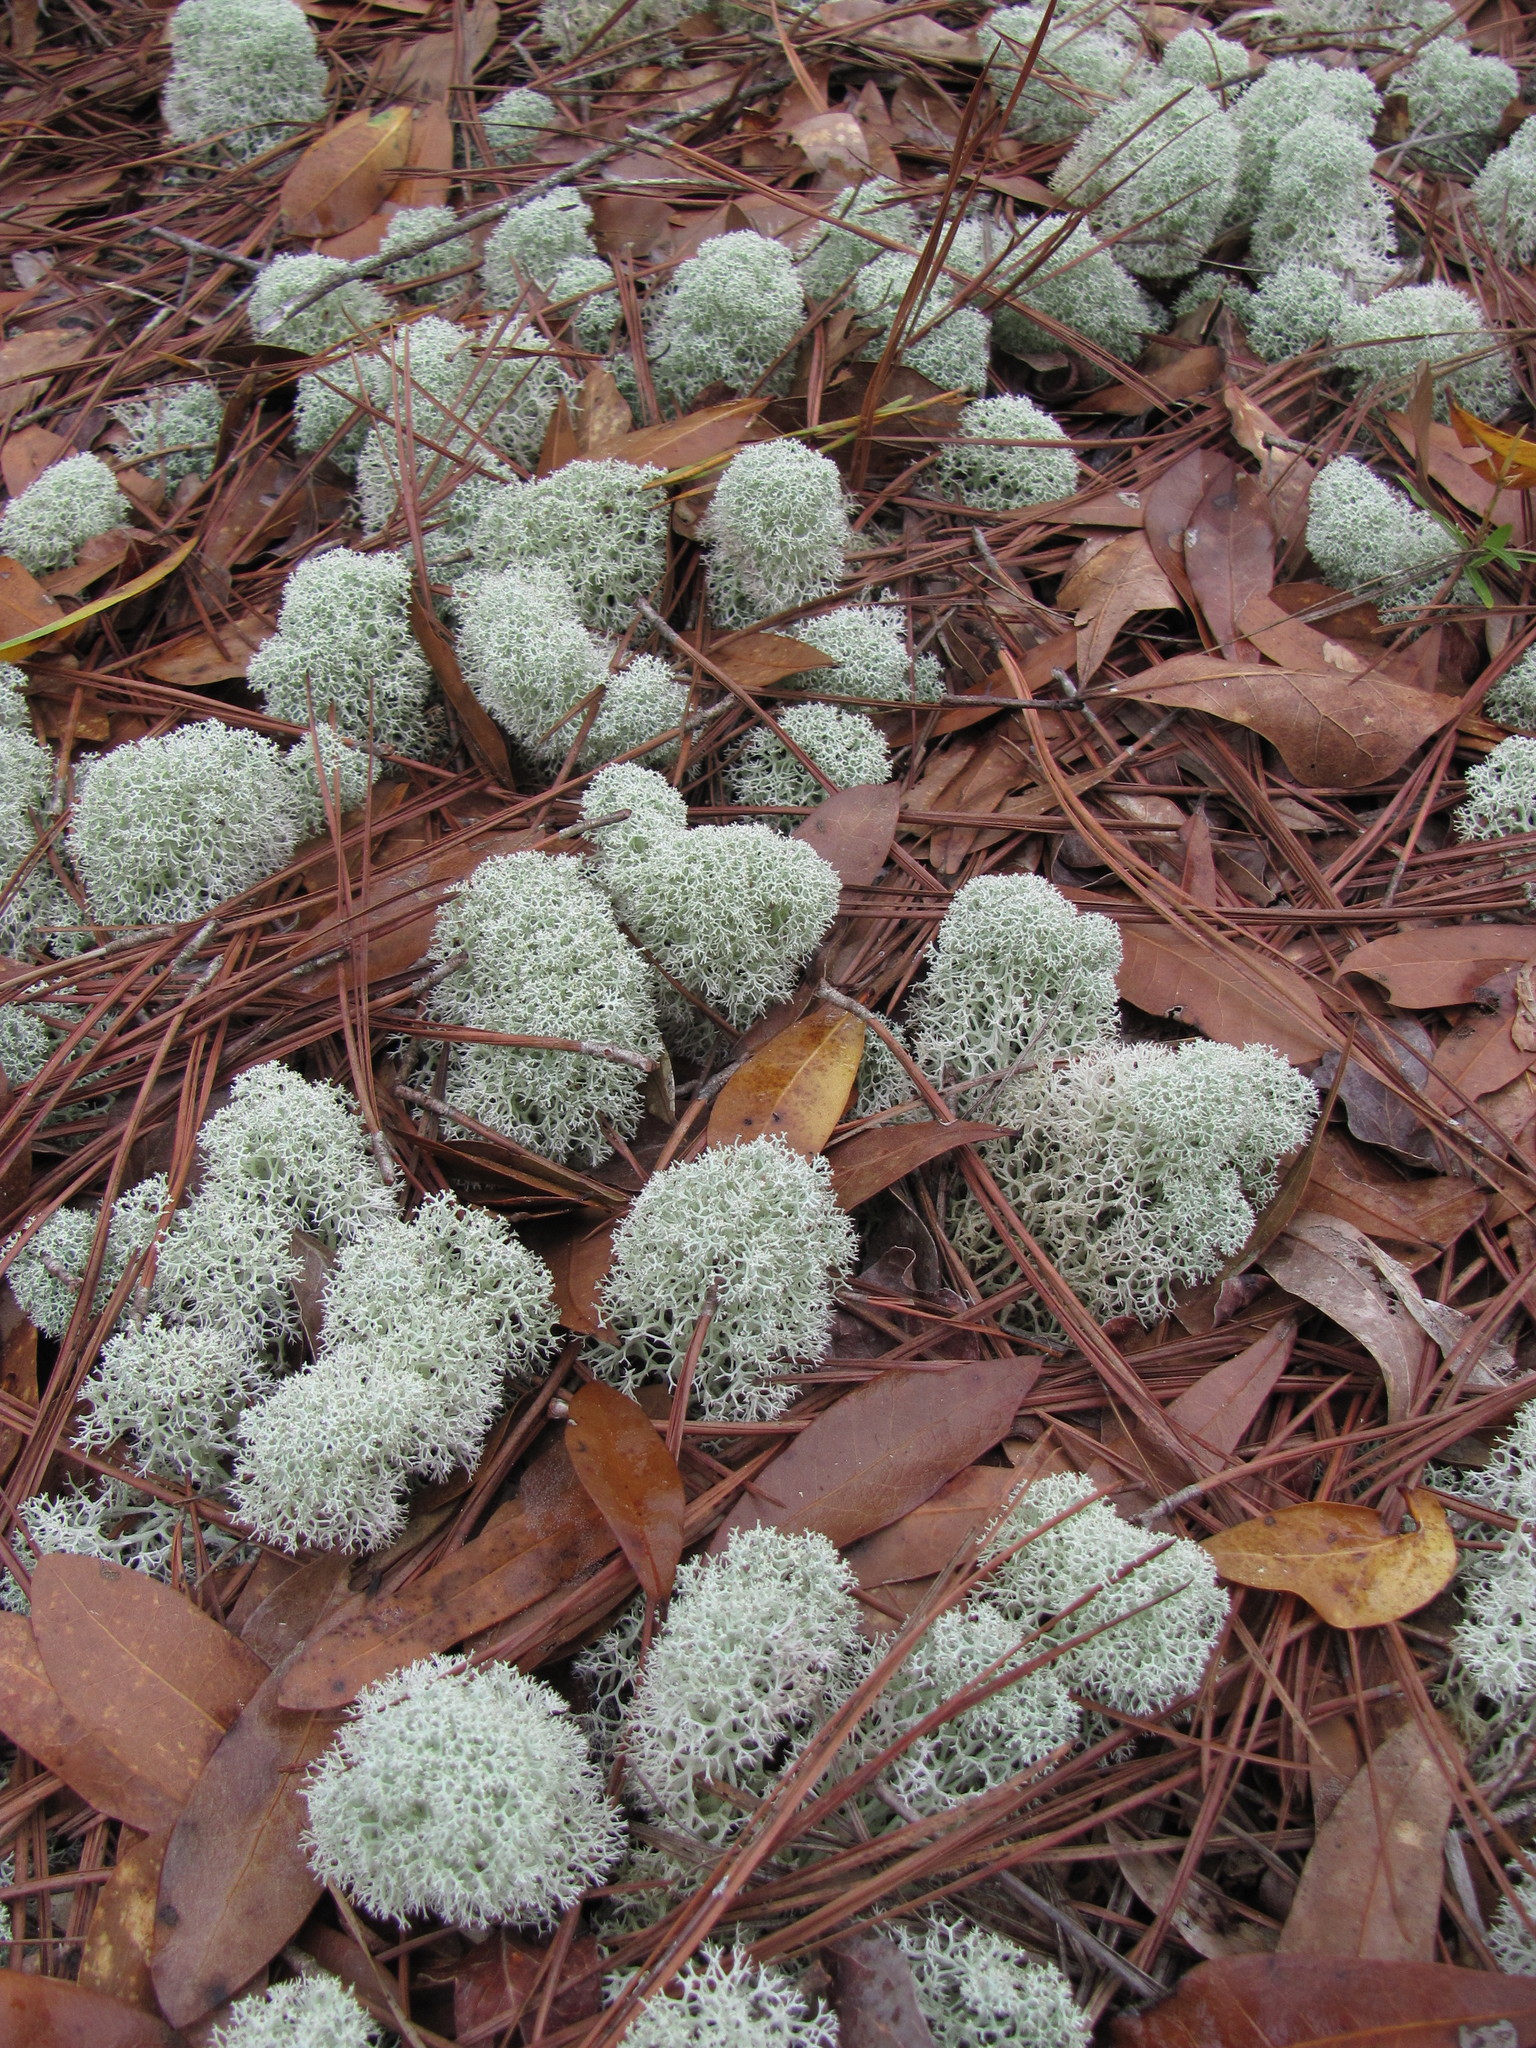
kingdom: Fungi
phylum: Ascomycota
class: Lecanoromycetes
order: Lecanorales
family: Cladoniaceae
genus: Cladonia
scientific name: Cladonia evansii
